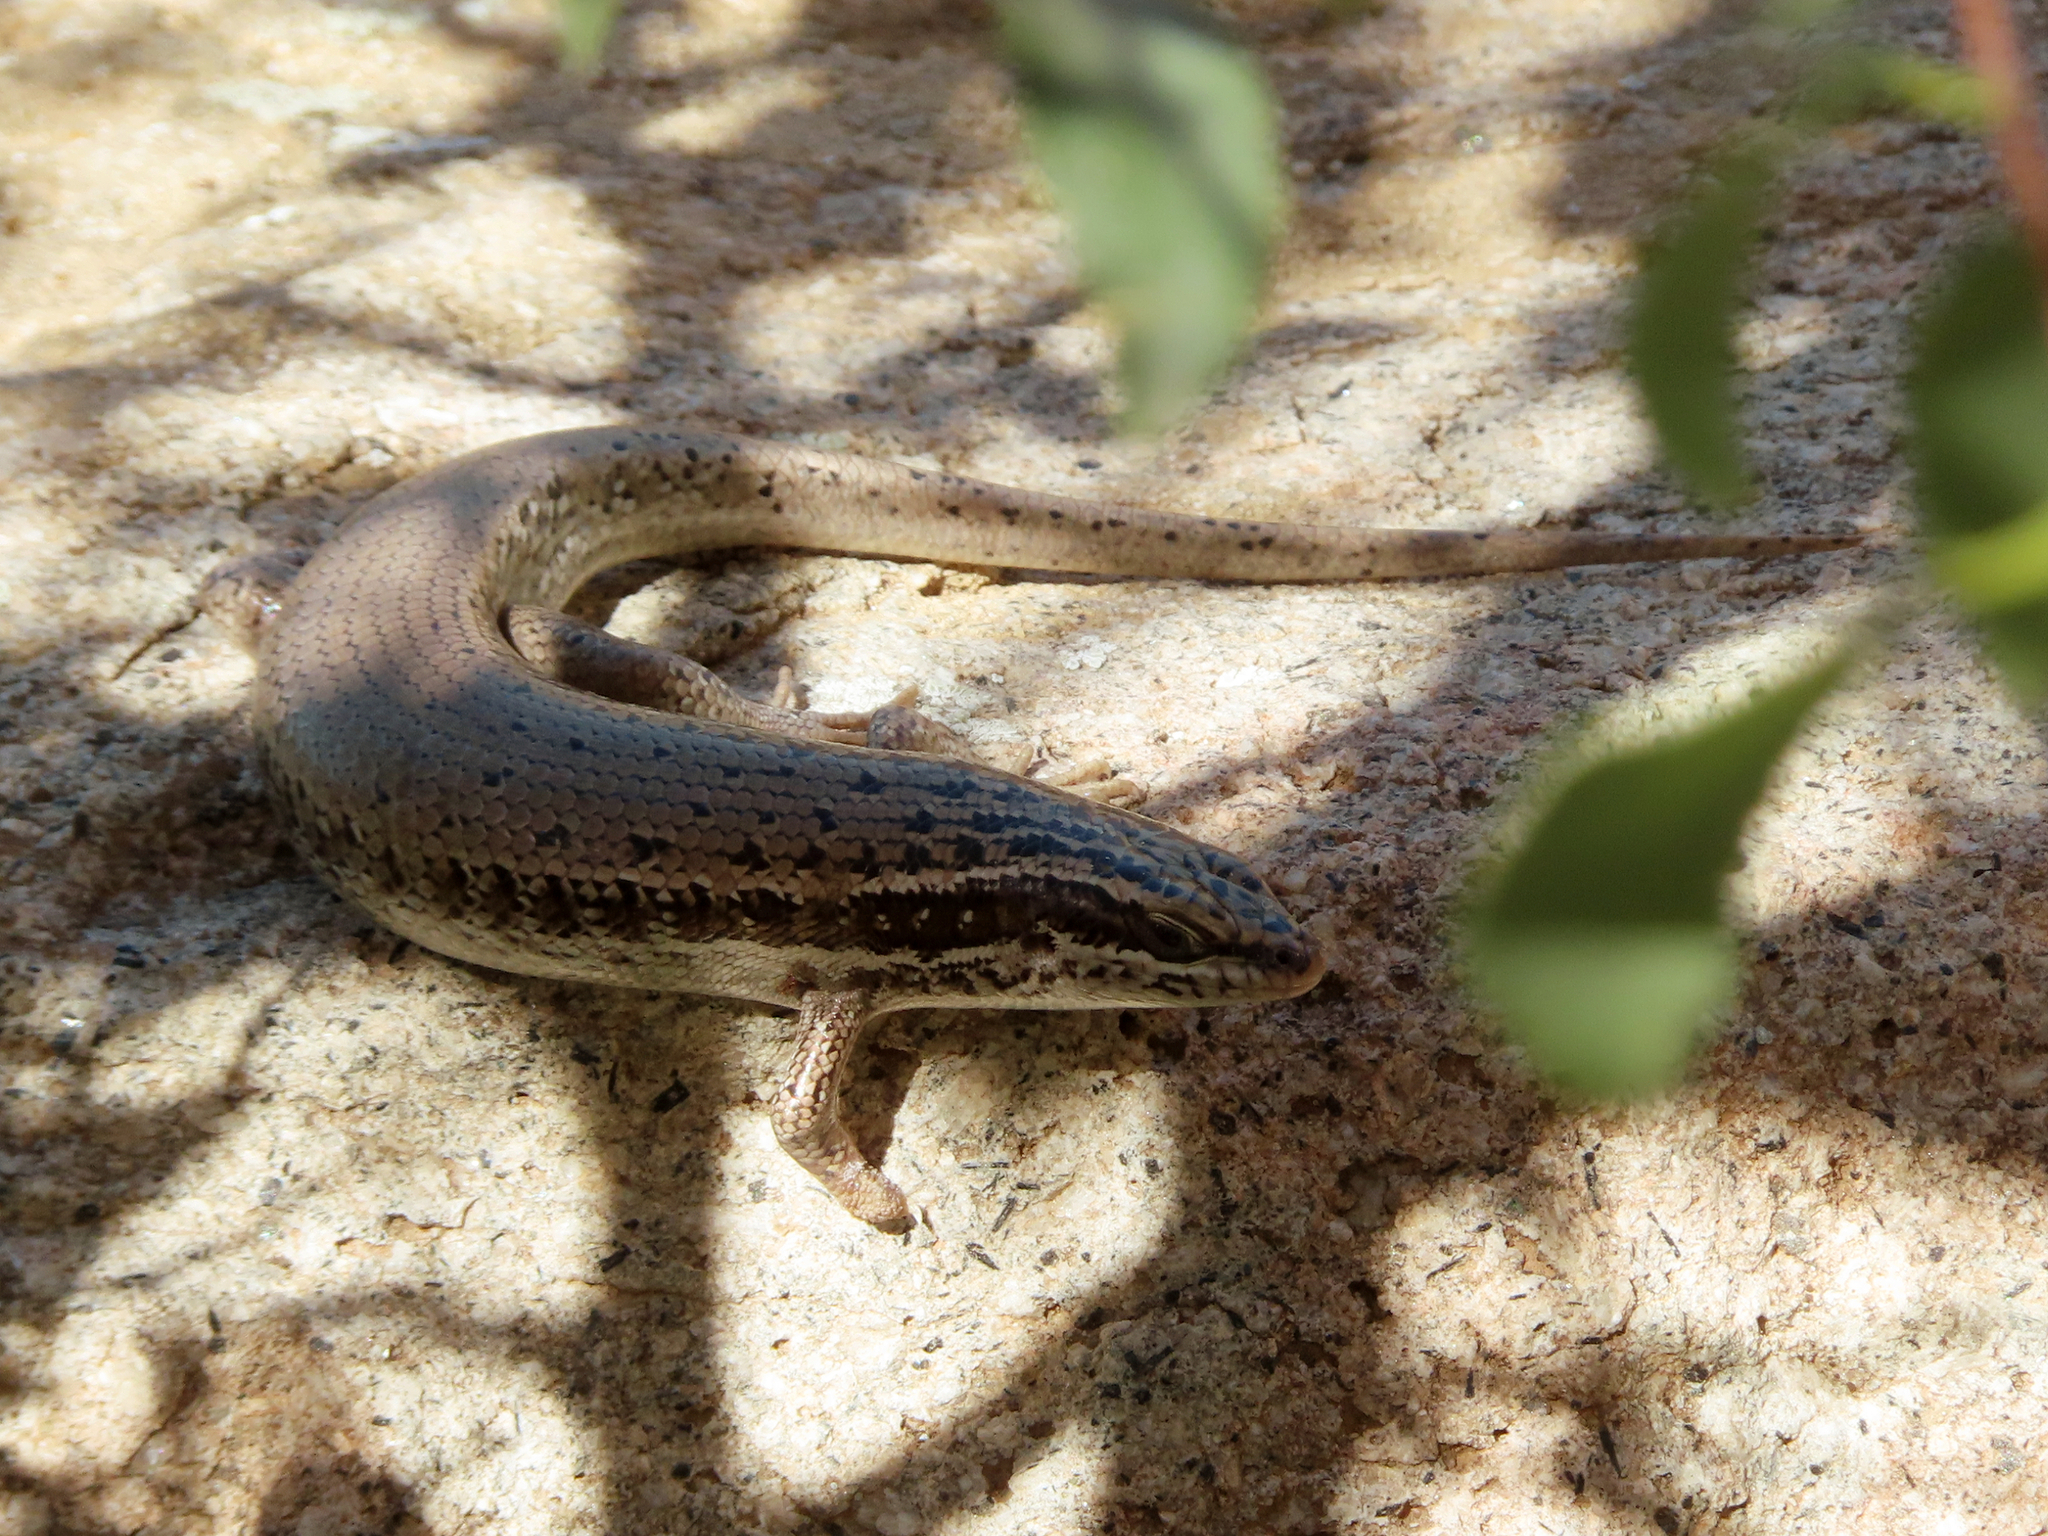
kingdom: Animalia
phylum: Chordata
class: Squamata
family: Scincidae
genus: Heremites
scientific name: Heremites septemtaeniatus
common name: Golden grass mabuya
